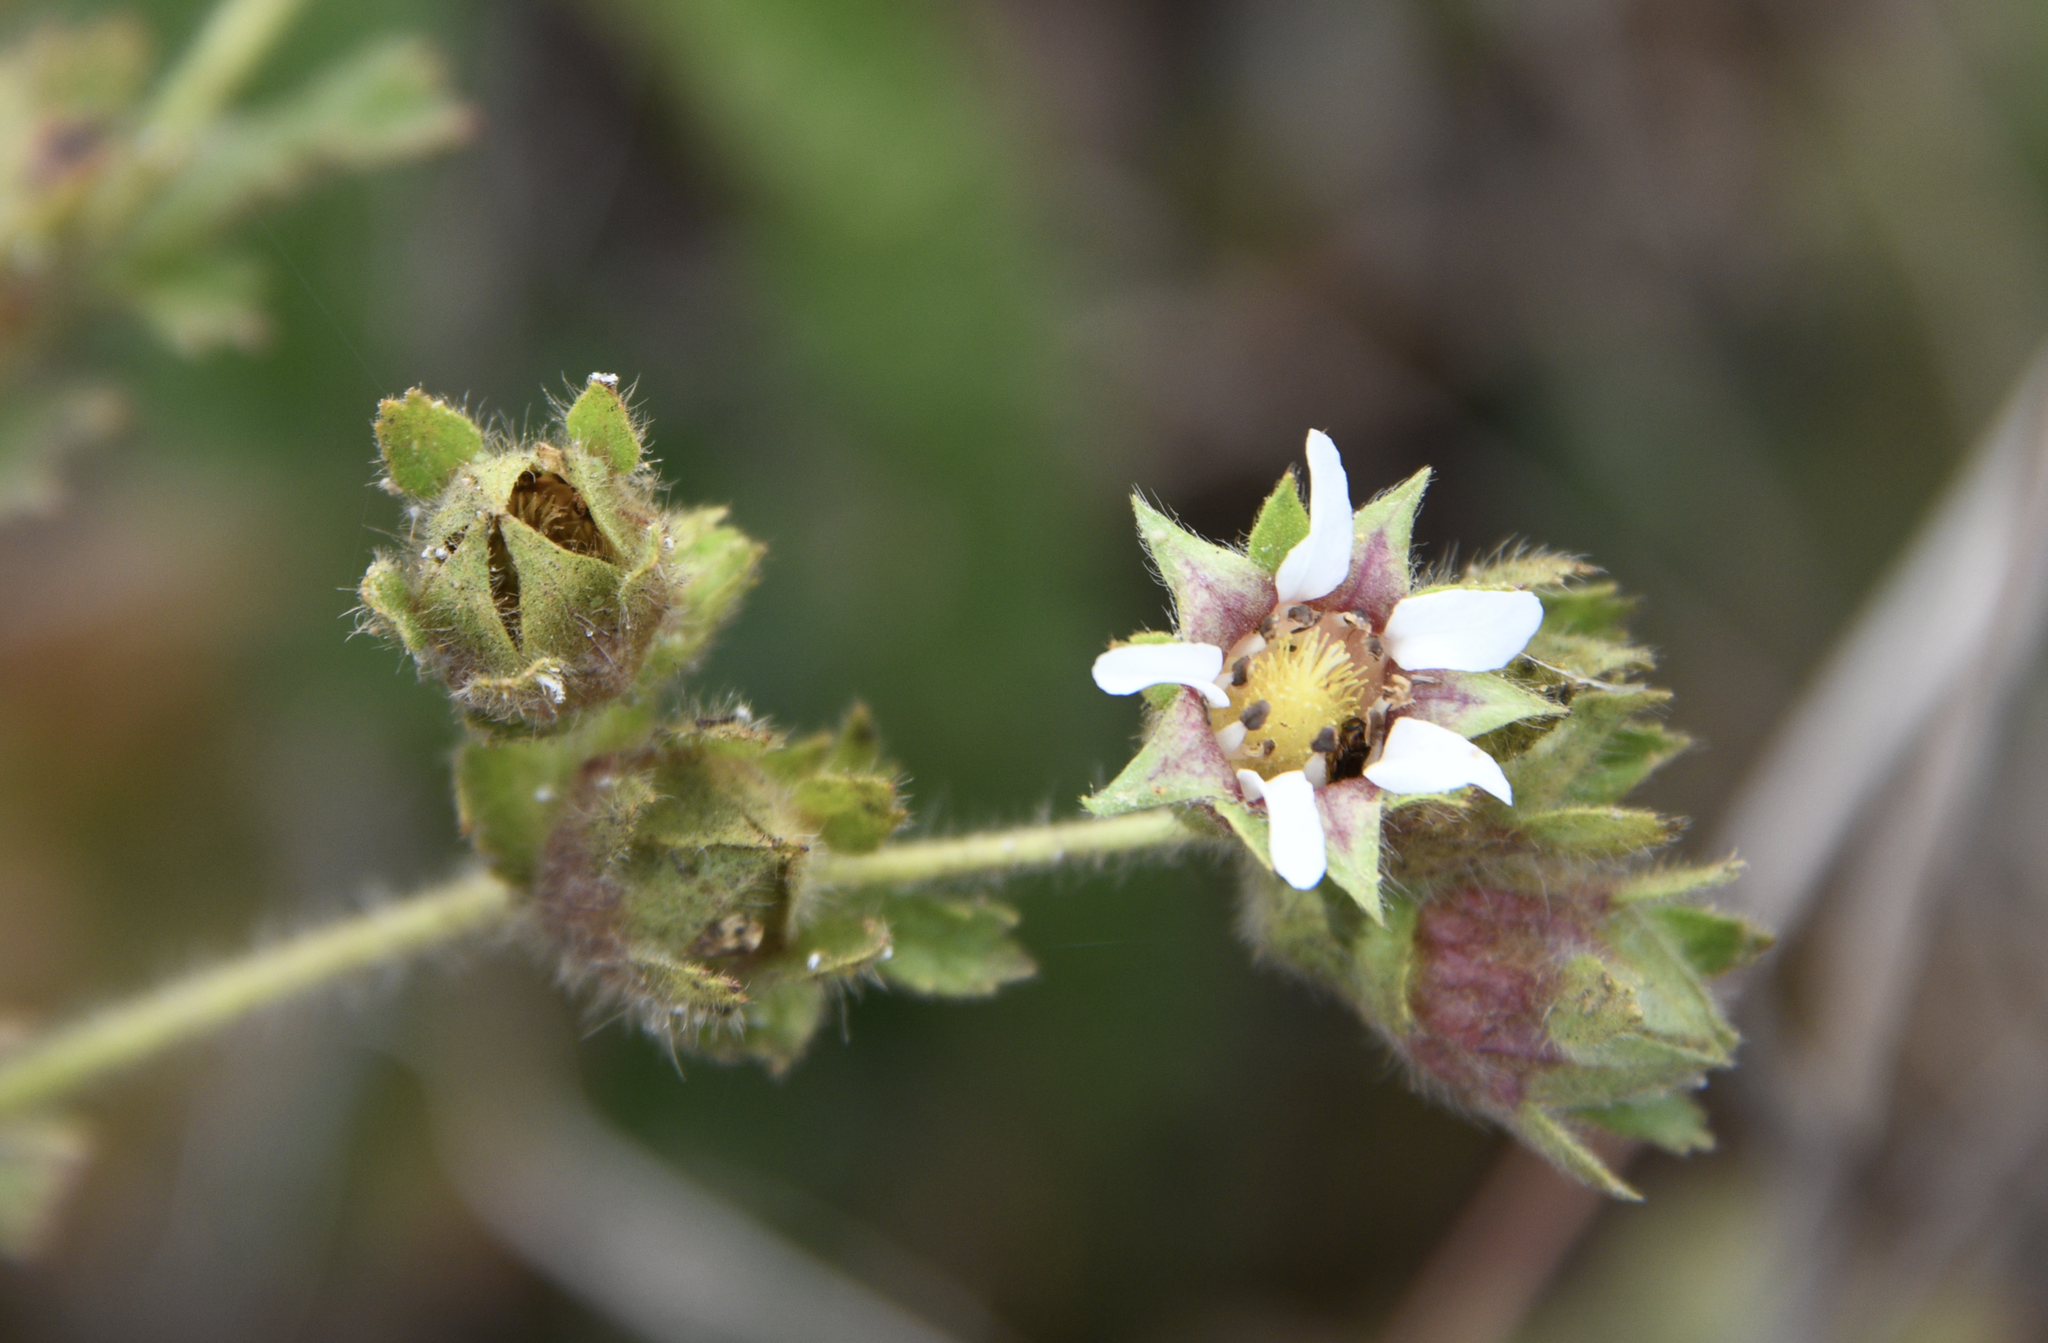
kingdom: Plantae
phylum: Tracheophyta
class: Magnoliopsida
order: Rosales
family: Rosaceae
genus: Potentilla
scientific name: Potentilla californica
